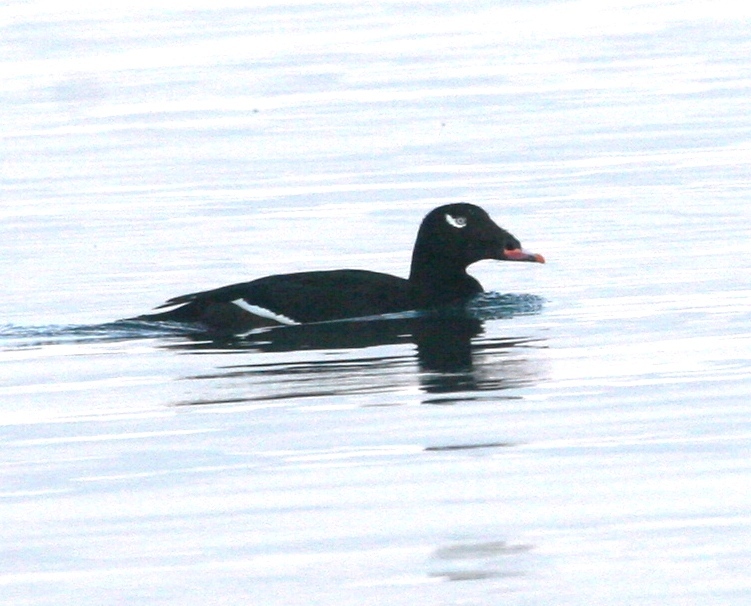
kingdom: Animalia
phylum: Chordata
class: Aves
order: Anseriformes
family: Anatidae
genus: Melanitta
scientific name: Melanitta deglandi
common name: White-winged scoter
